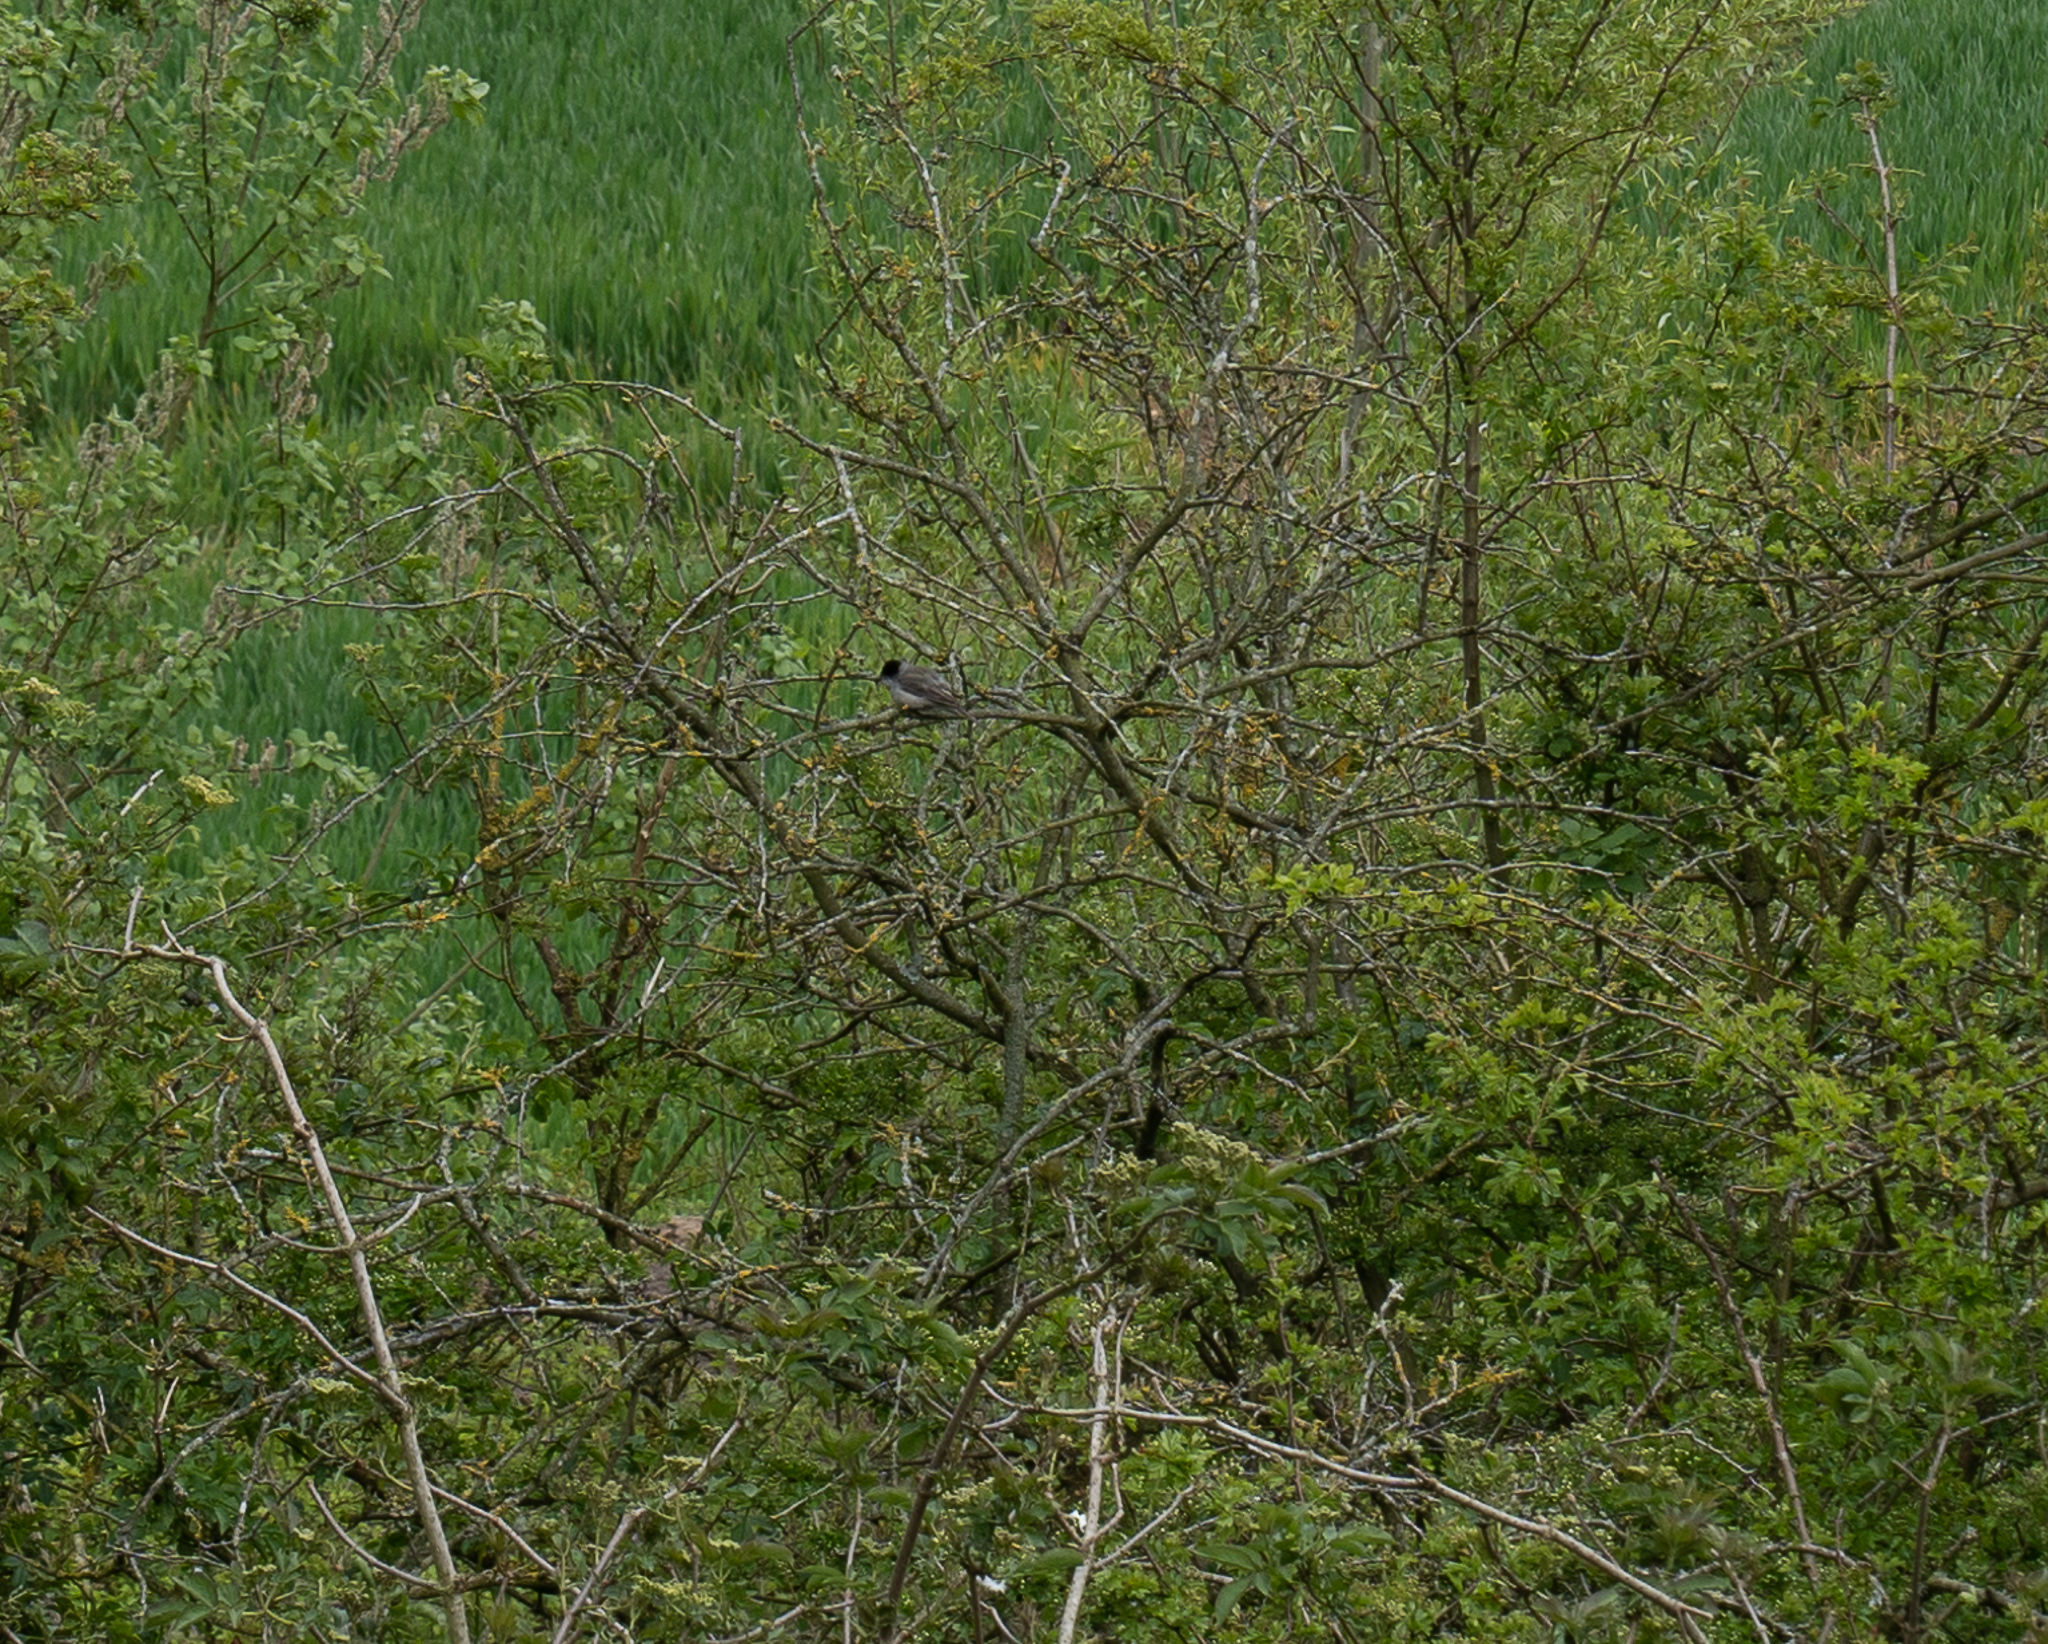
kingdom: Animalia
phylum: Chordata
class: Aves
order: Passeriformes
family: Sylviidae
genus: Sylvia
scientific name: Sylvia atricapilla
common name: Eurasian blackcap
